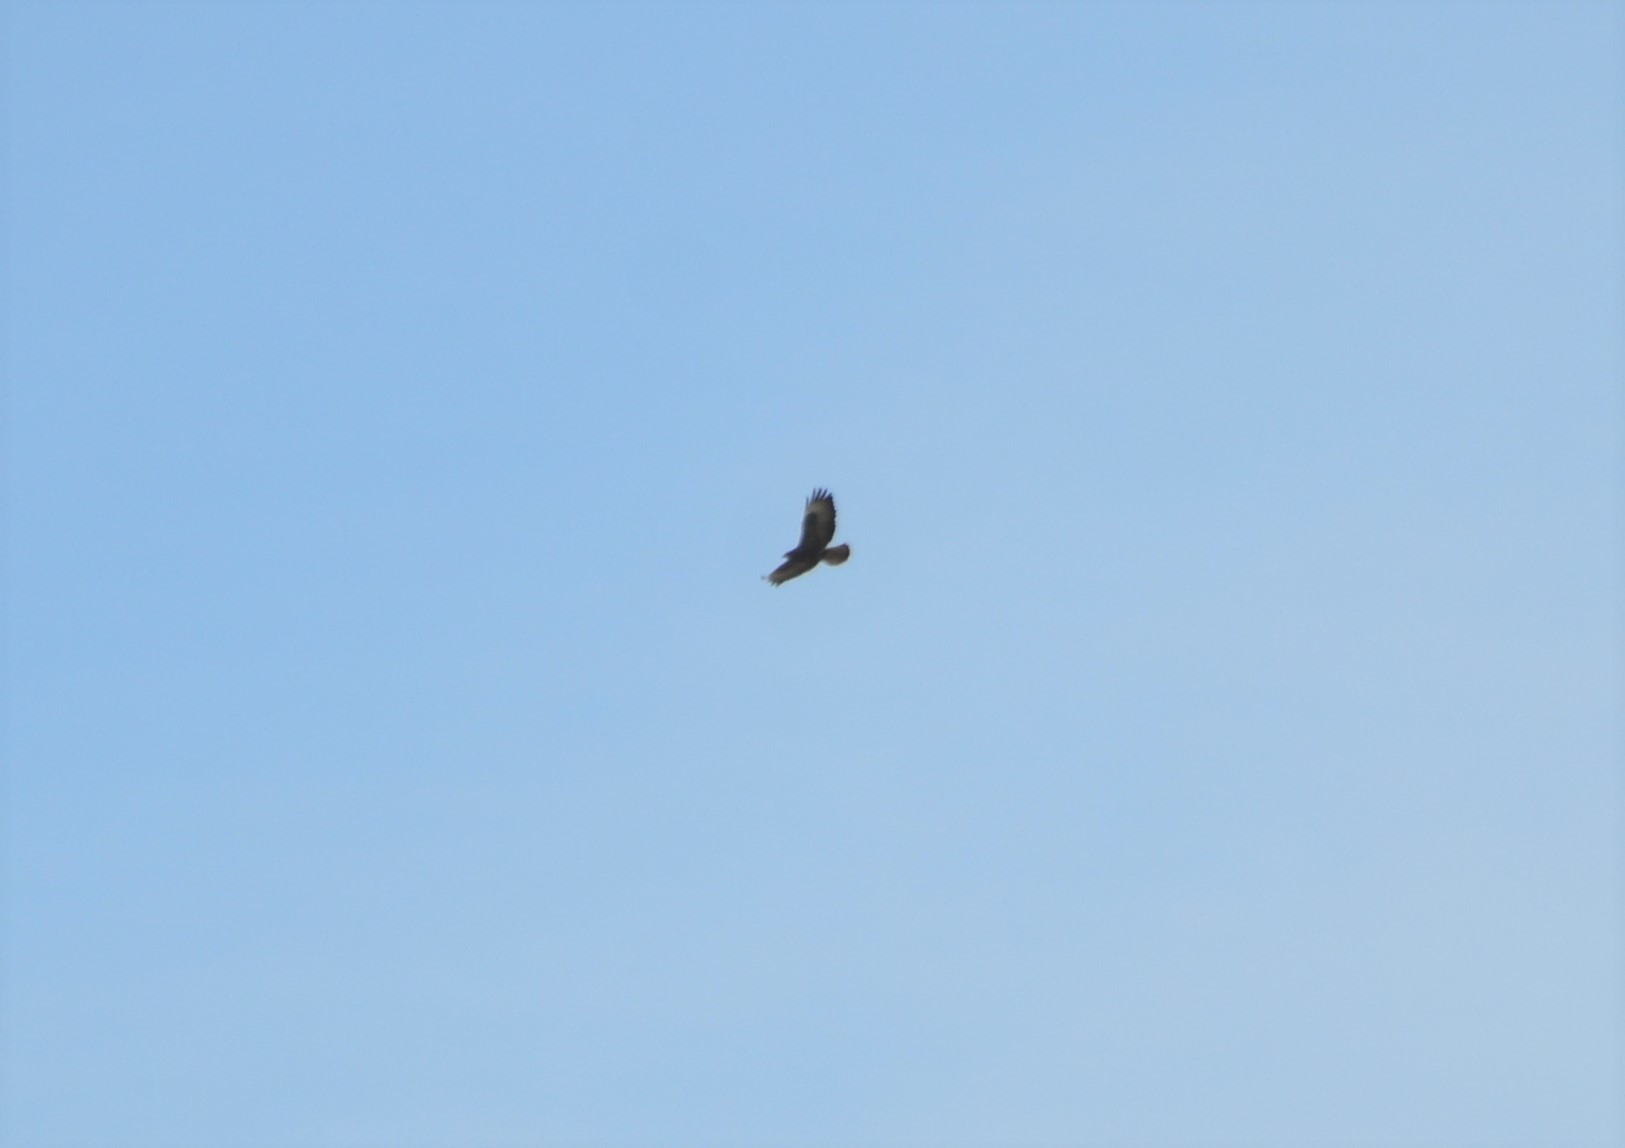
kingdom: Animalia
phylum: Chordata
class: Aves
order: Accipitriformes
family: Accipitridae
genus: Buteo
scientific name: Buteo buteo
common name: Common buzzard
